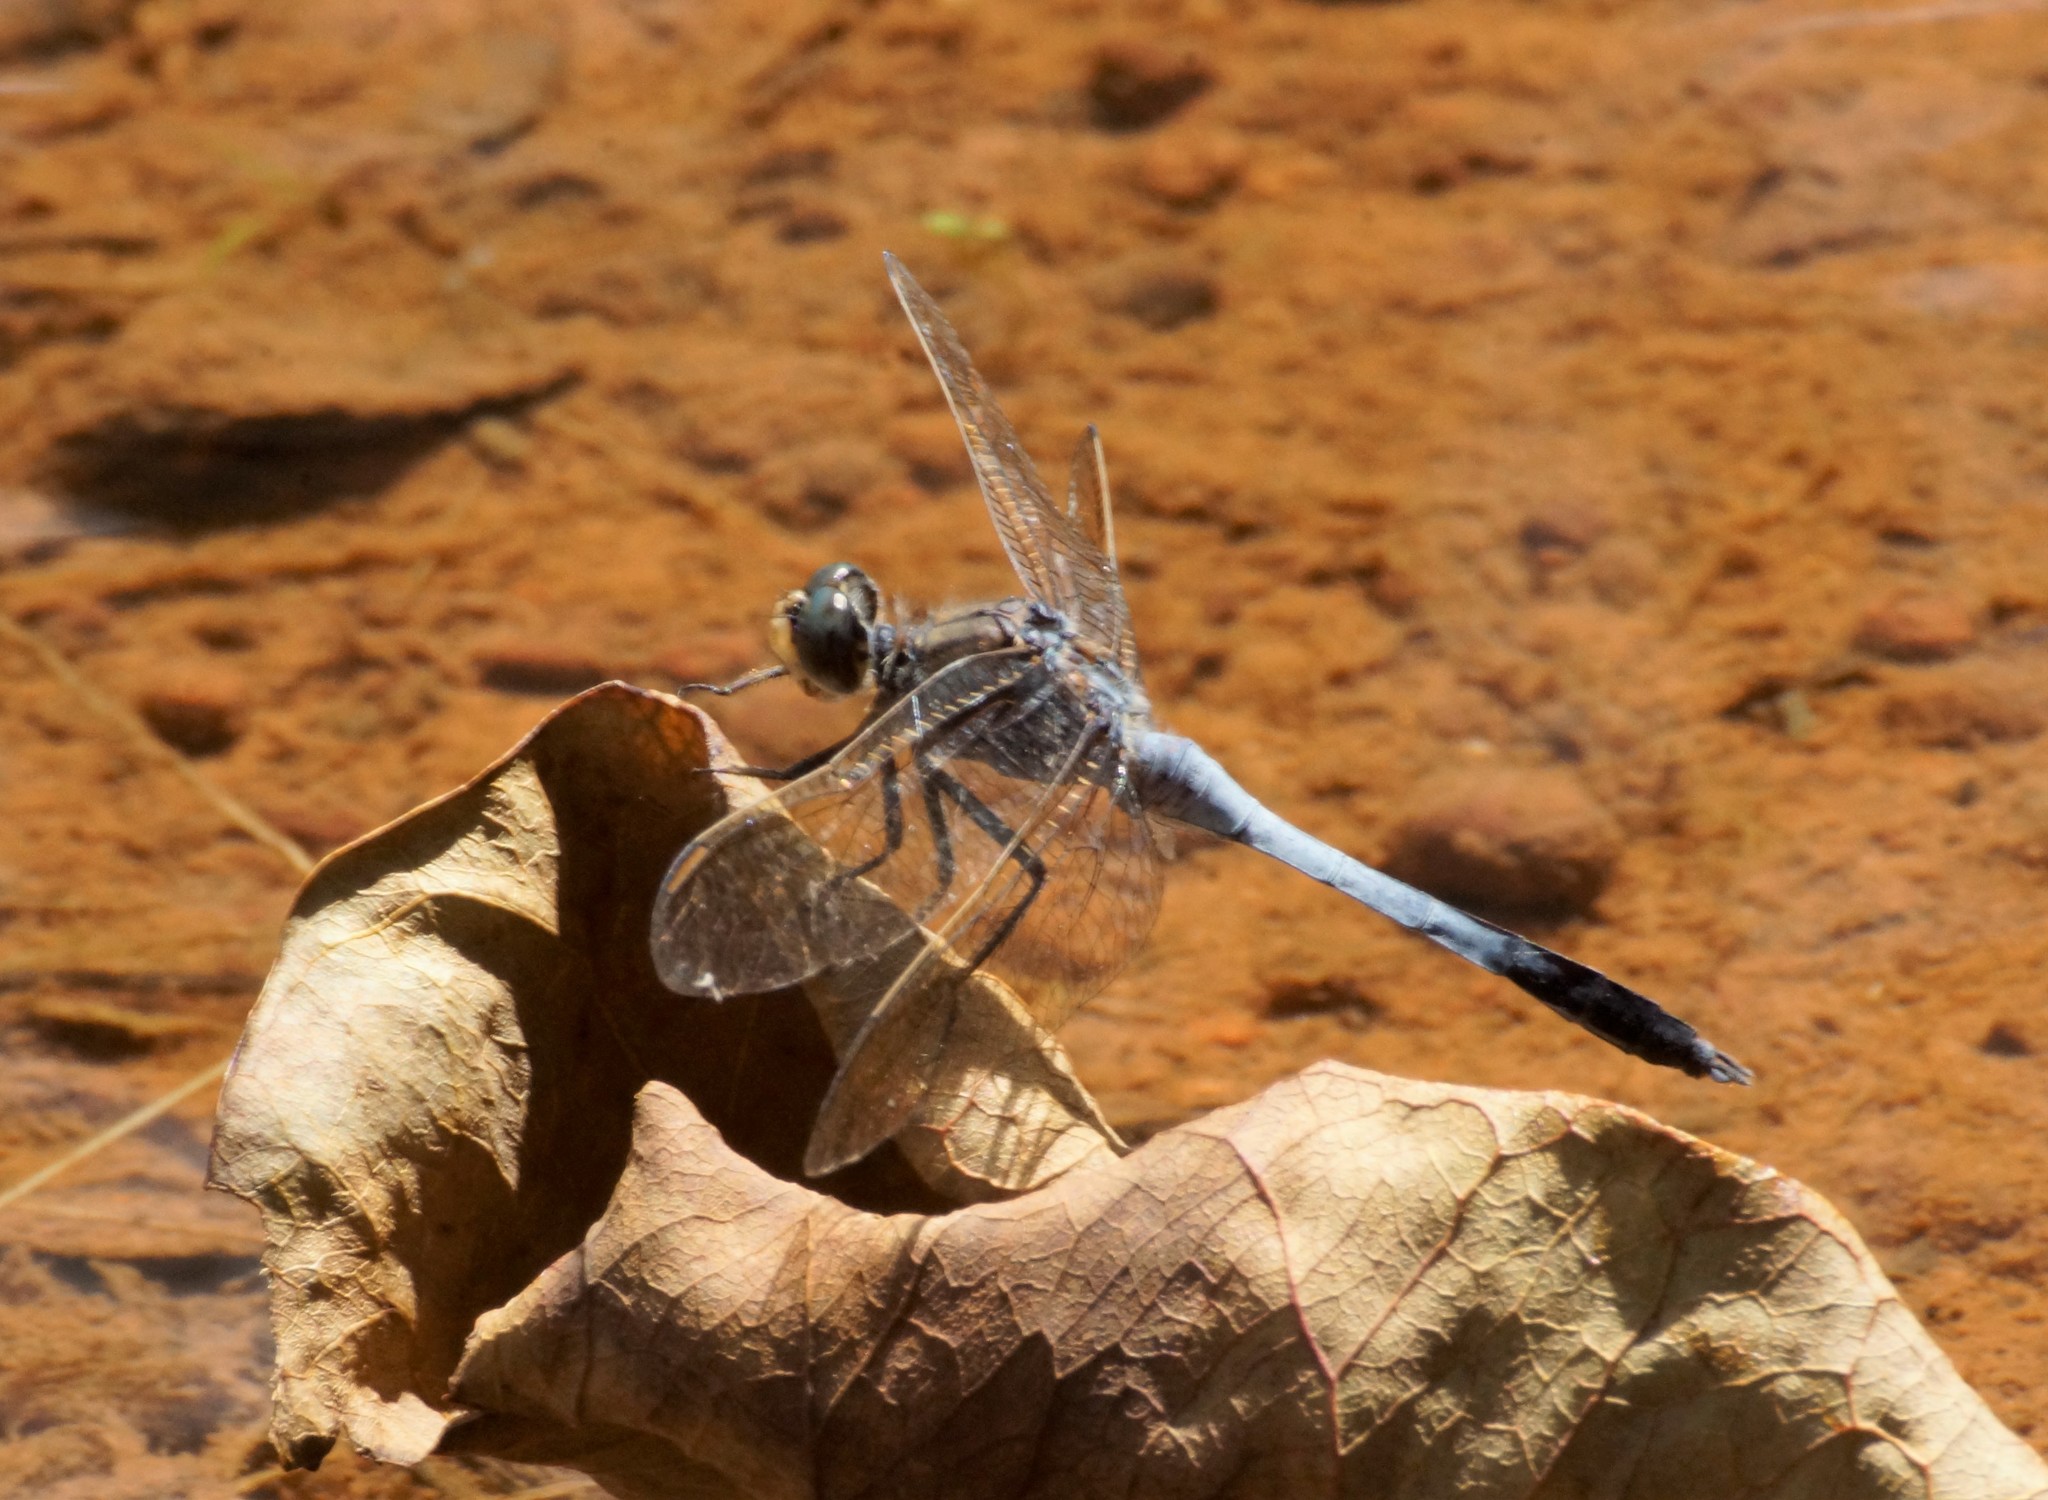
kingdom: Animalia
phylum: Arthropoda
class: Insecta
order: Odonata
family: Libellulidae
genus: Diplacodes
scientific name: Diplacodes trivialis
